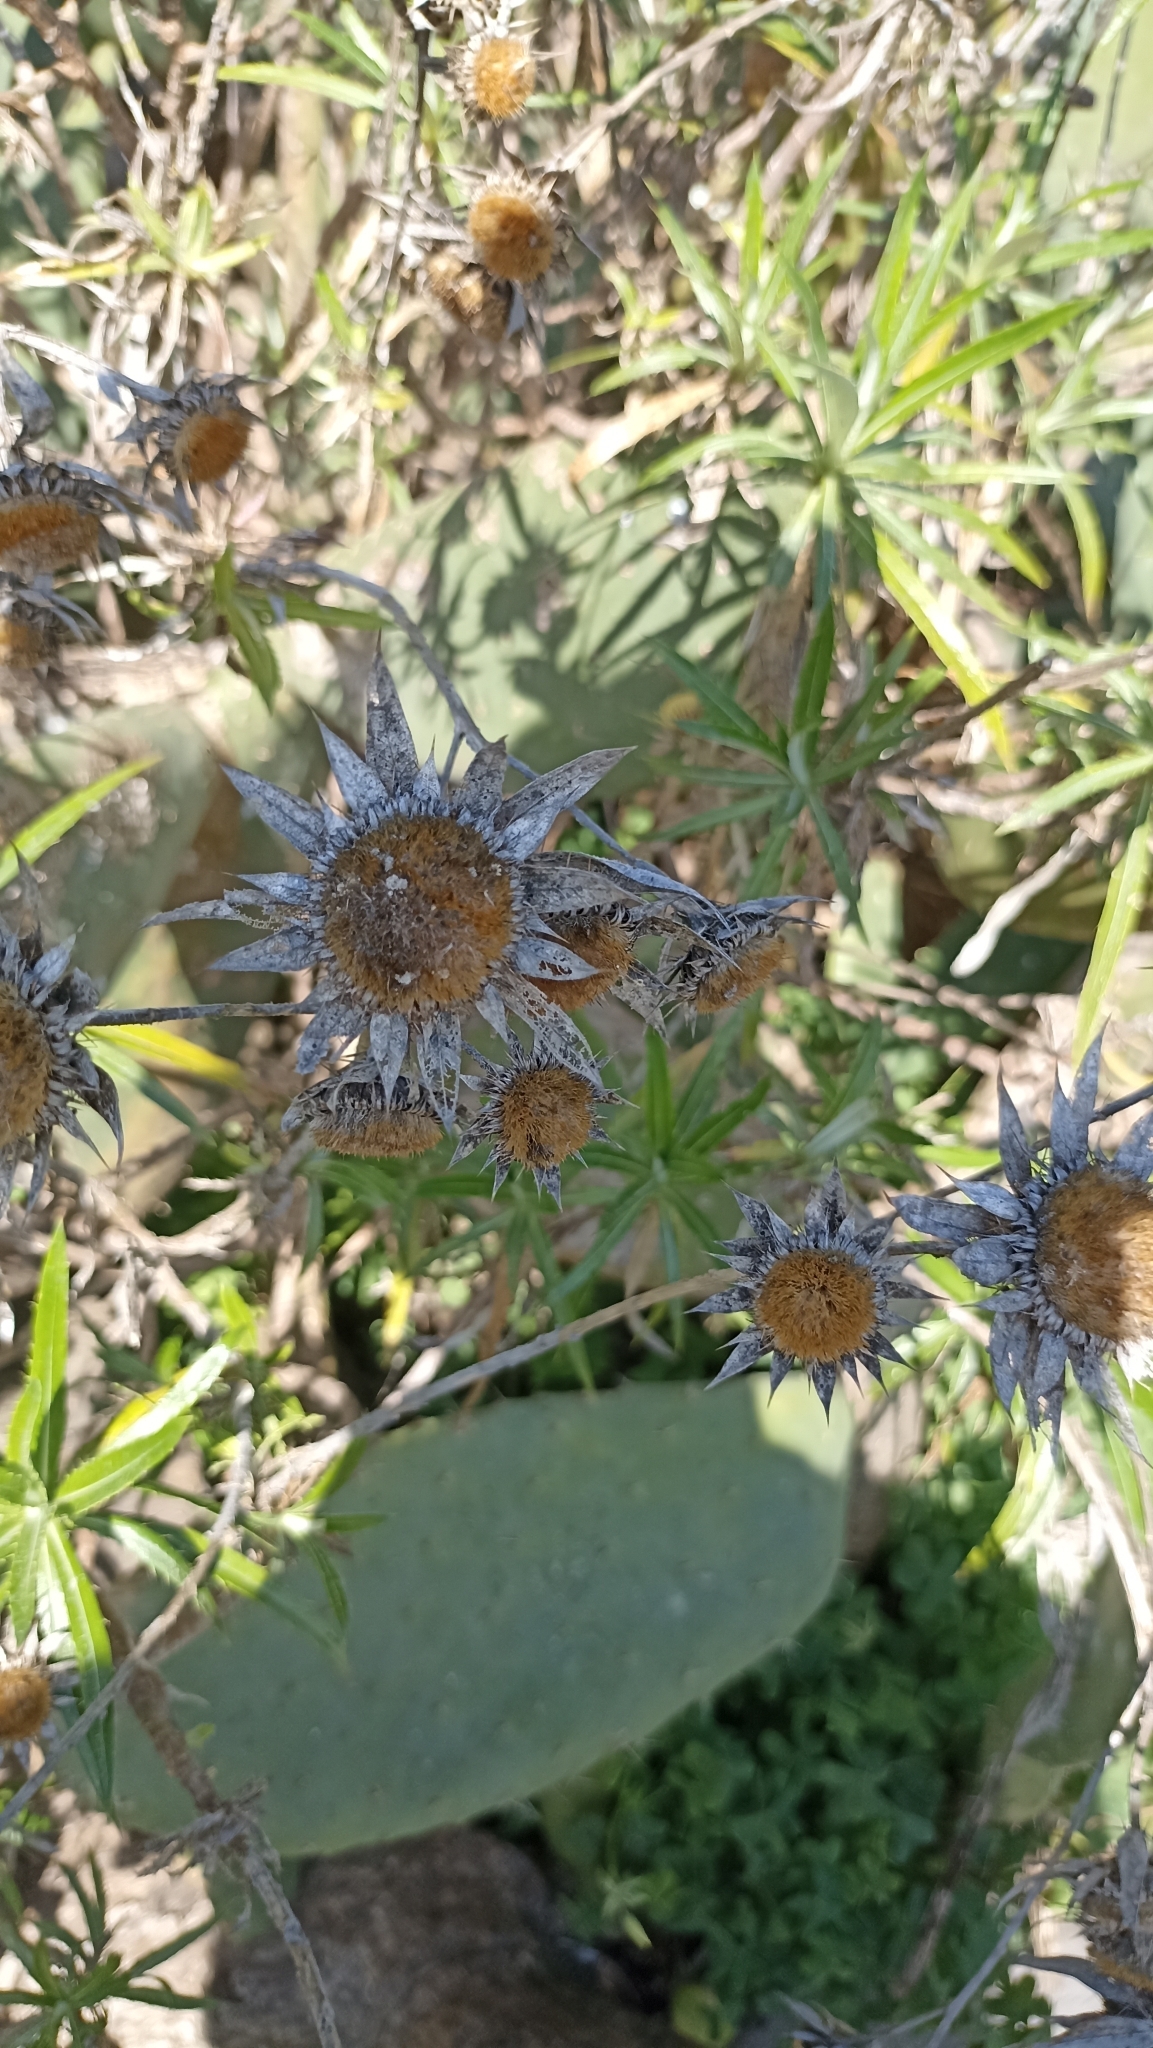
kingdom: Plantae
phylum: Tracheophyta
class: Magnoliopsida
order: Asterales
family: Asteraceae
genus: Cynara
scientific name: Cynara cardunculus
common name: Globe artichoke
